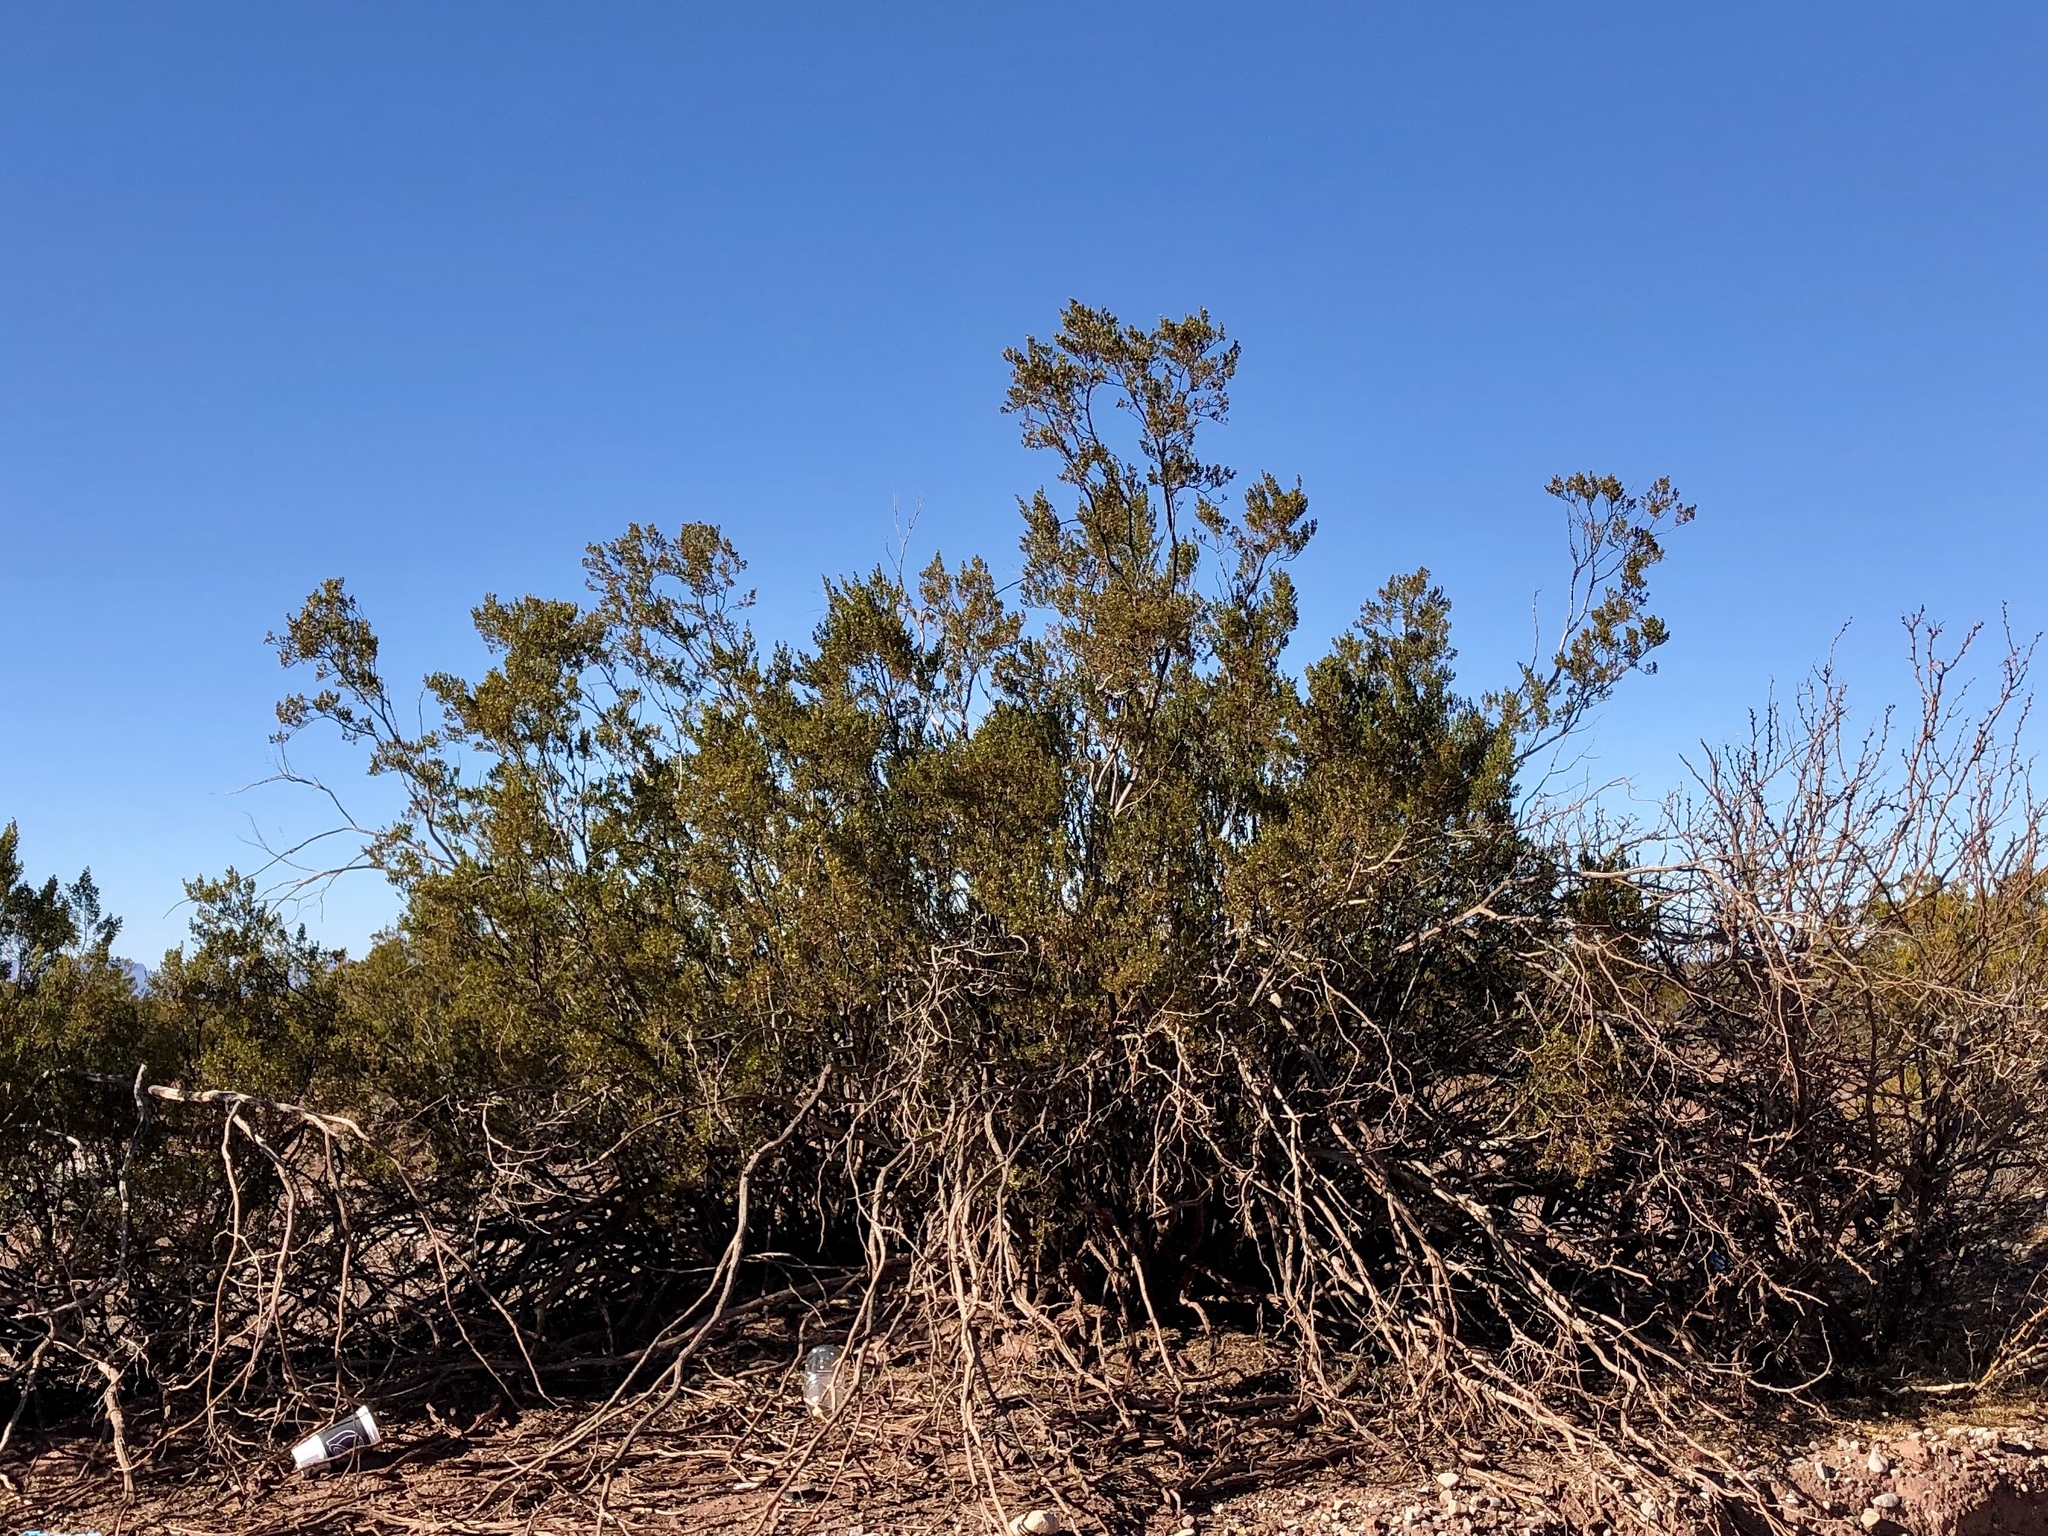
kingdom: Plantae
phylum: Tracheophyta
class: Magnoliopsida
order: Zygophyllales
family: Zygophyllaceae
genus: Larrea
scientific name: Larrea tridentata
